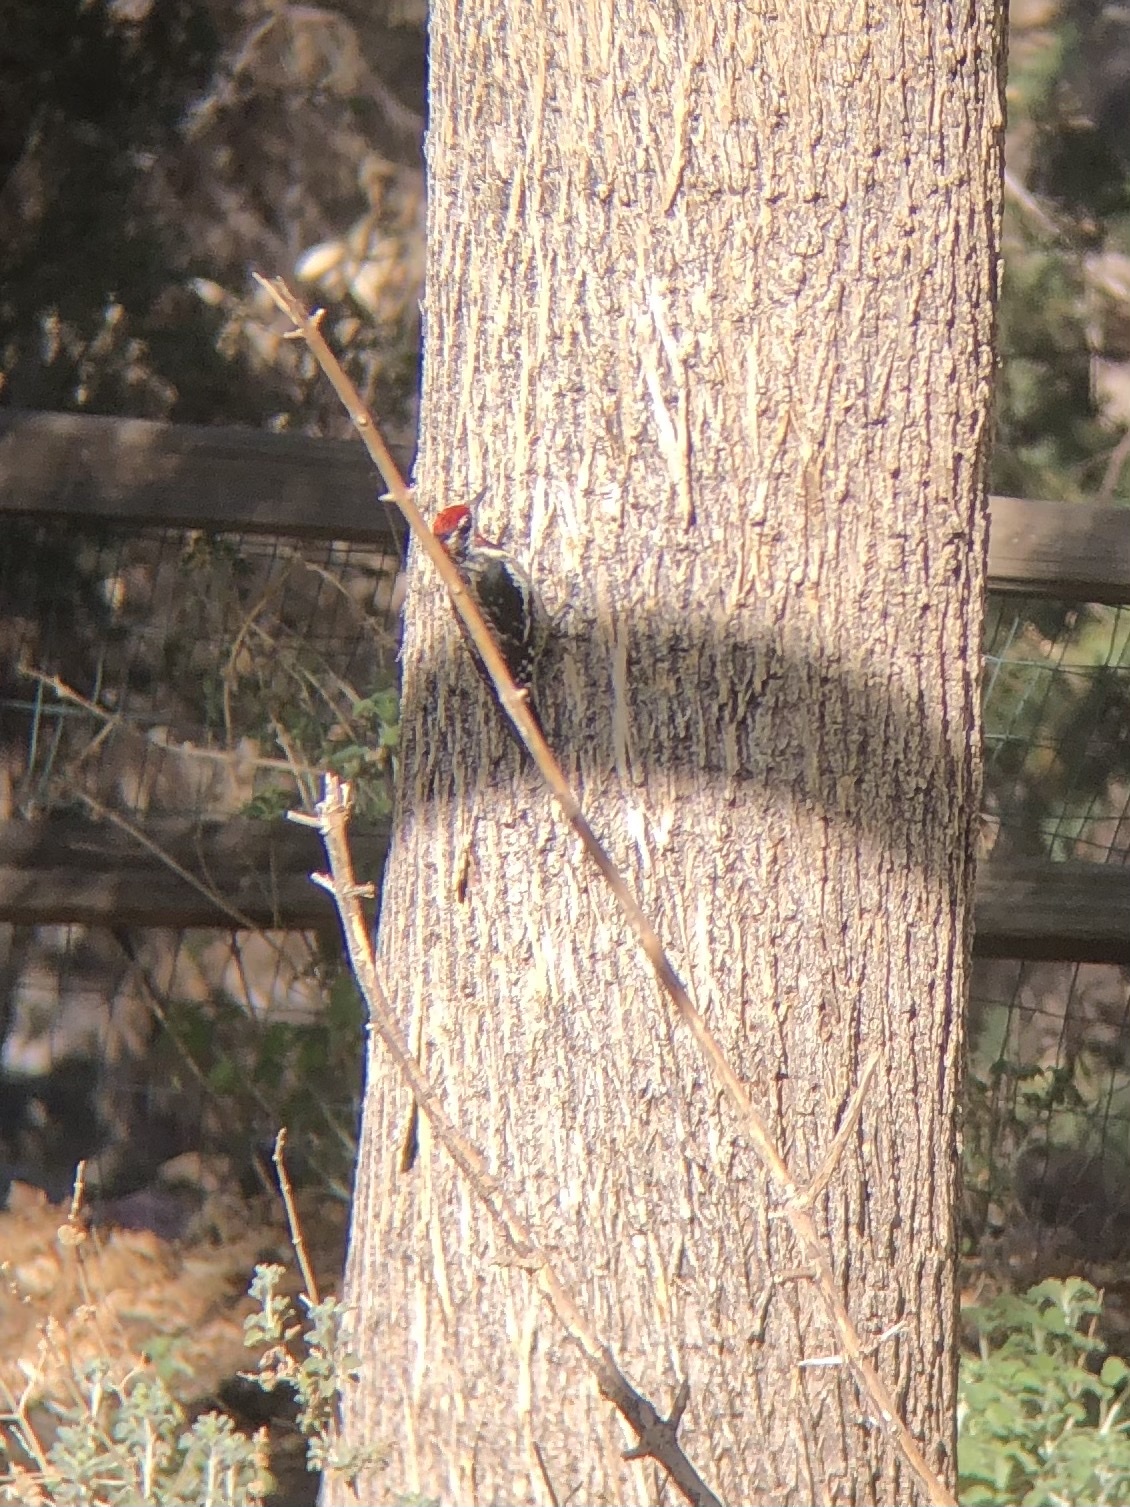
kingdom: Animalia
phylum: Chordata
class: Aves
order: Piciformes
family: Picidae
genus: Sphyrapicus
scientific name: Sphyrapicus nuchalis
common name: Red-naped sapsucker
